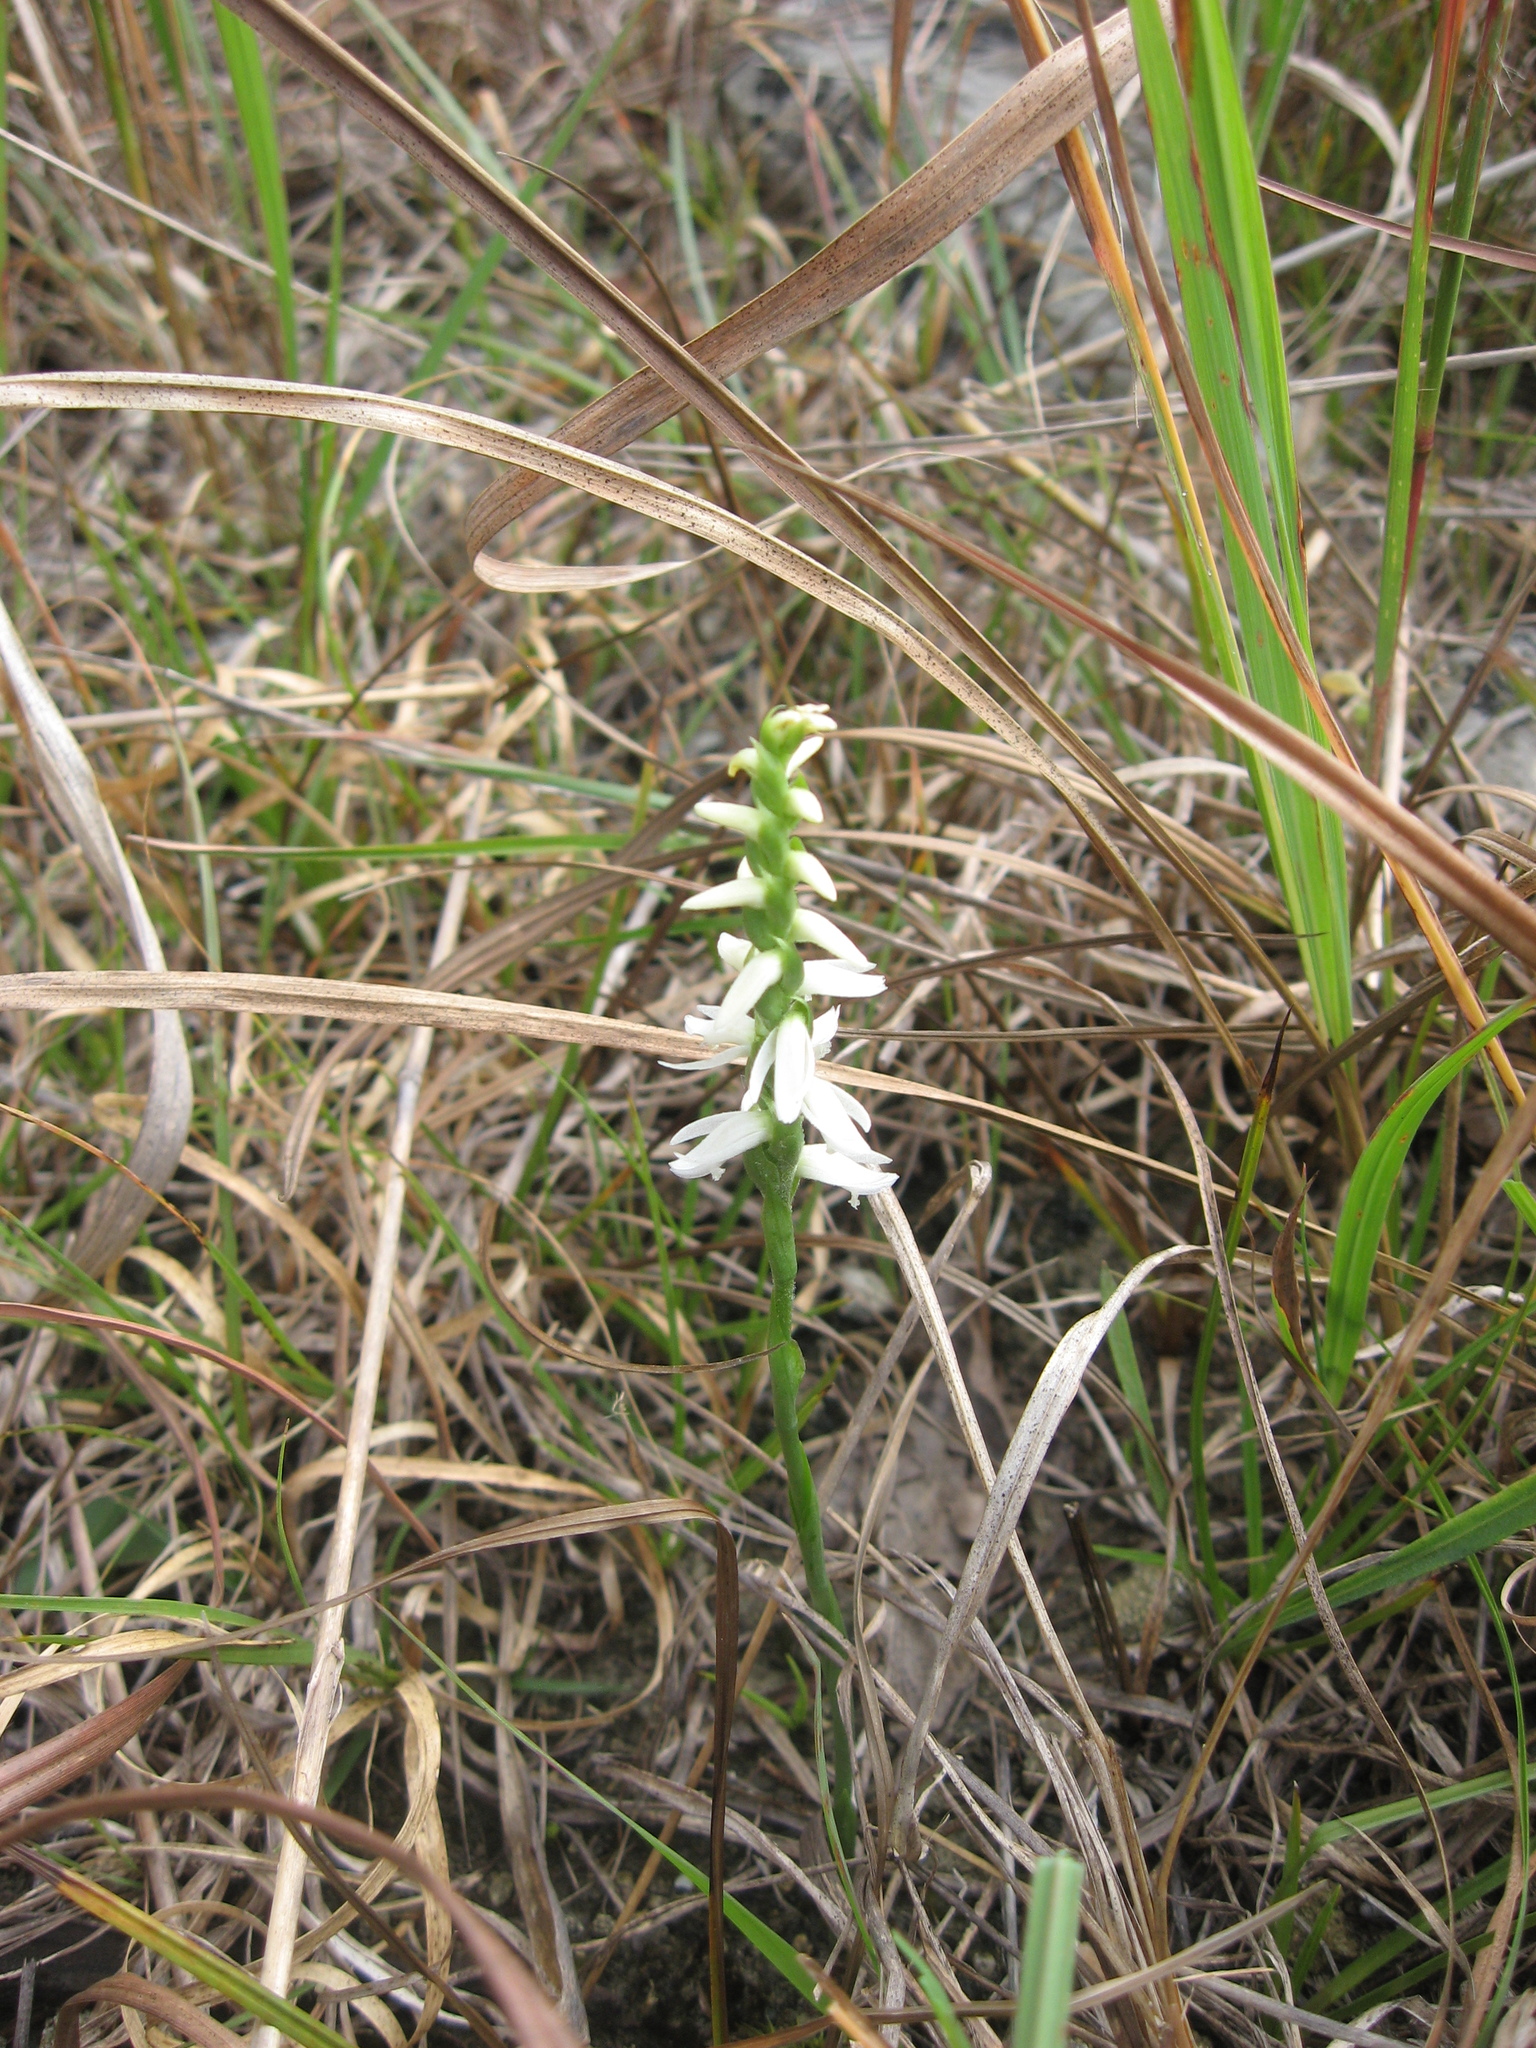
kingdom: Plantae
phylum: Tracheophyta
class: Liliopsida
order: Asparagales
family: Orchidaceae
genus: Spiranthes
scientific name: Spiranthes magnicamporum
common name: Great plains ladies'-tresses
